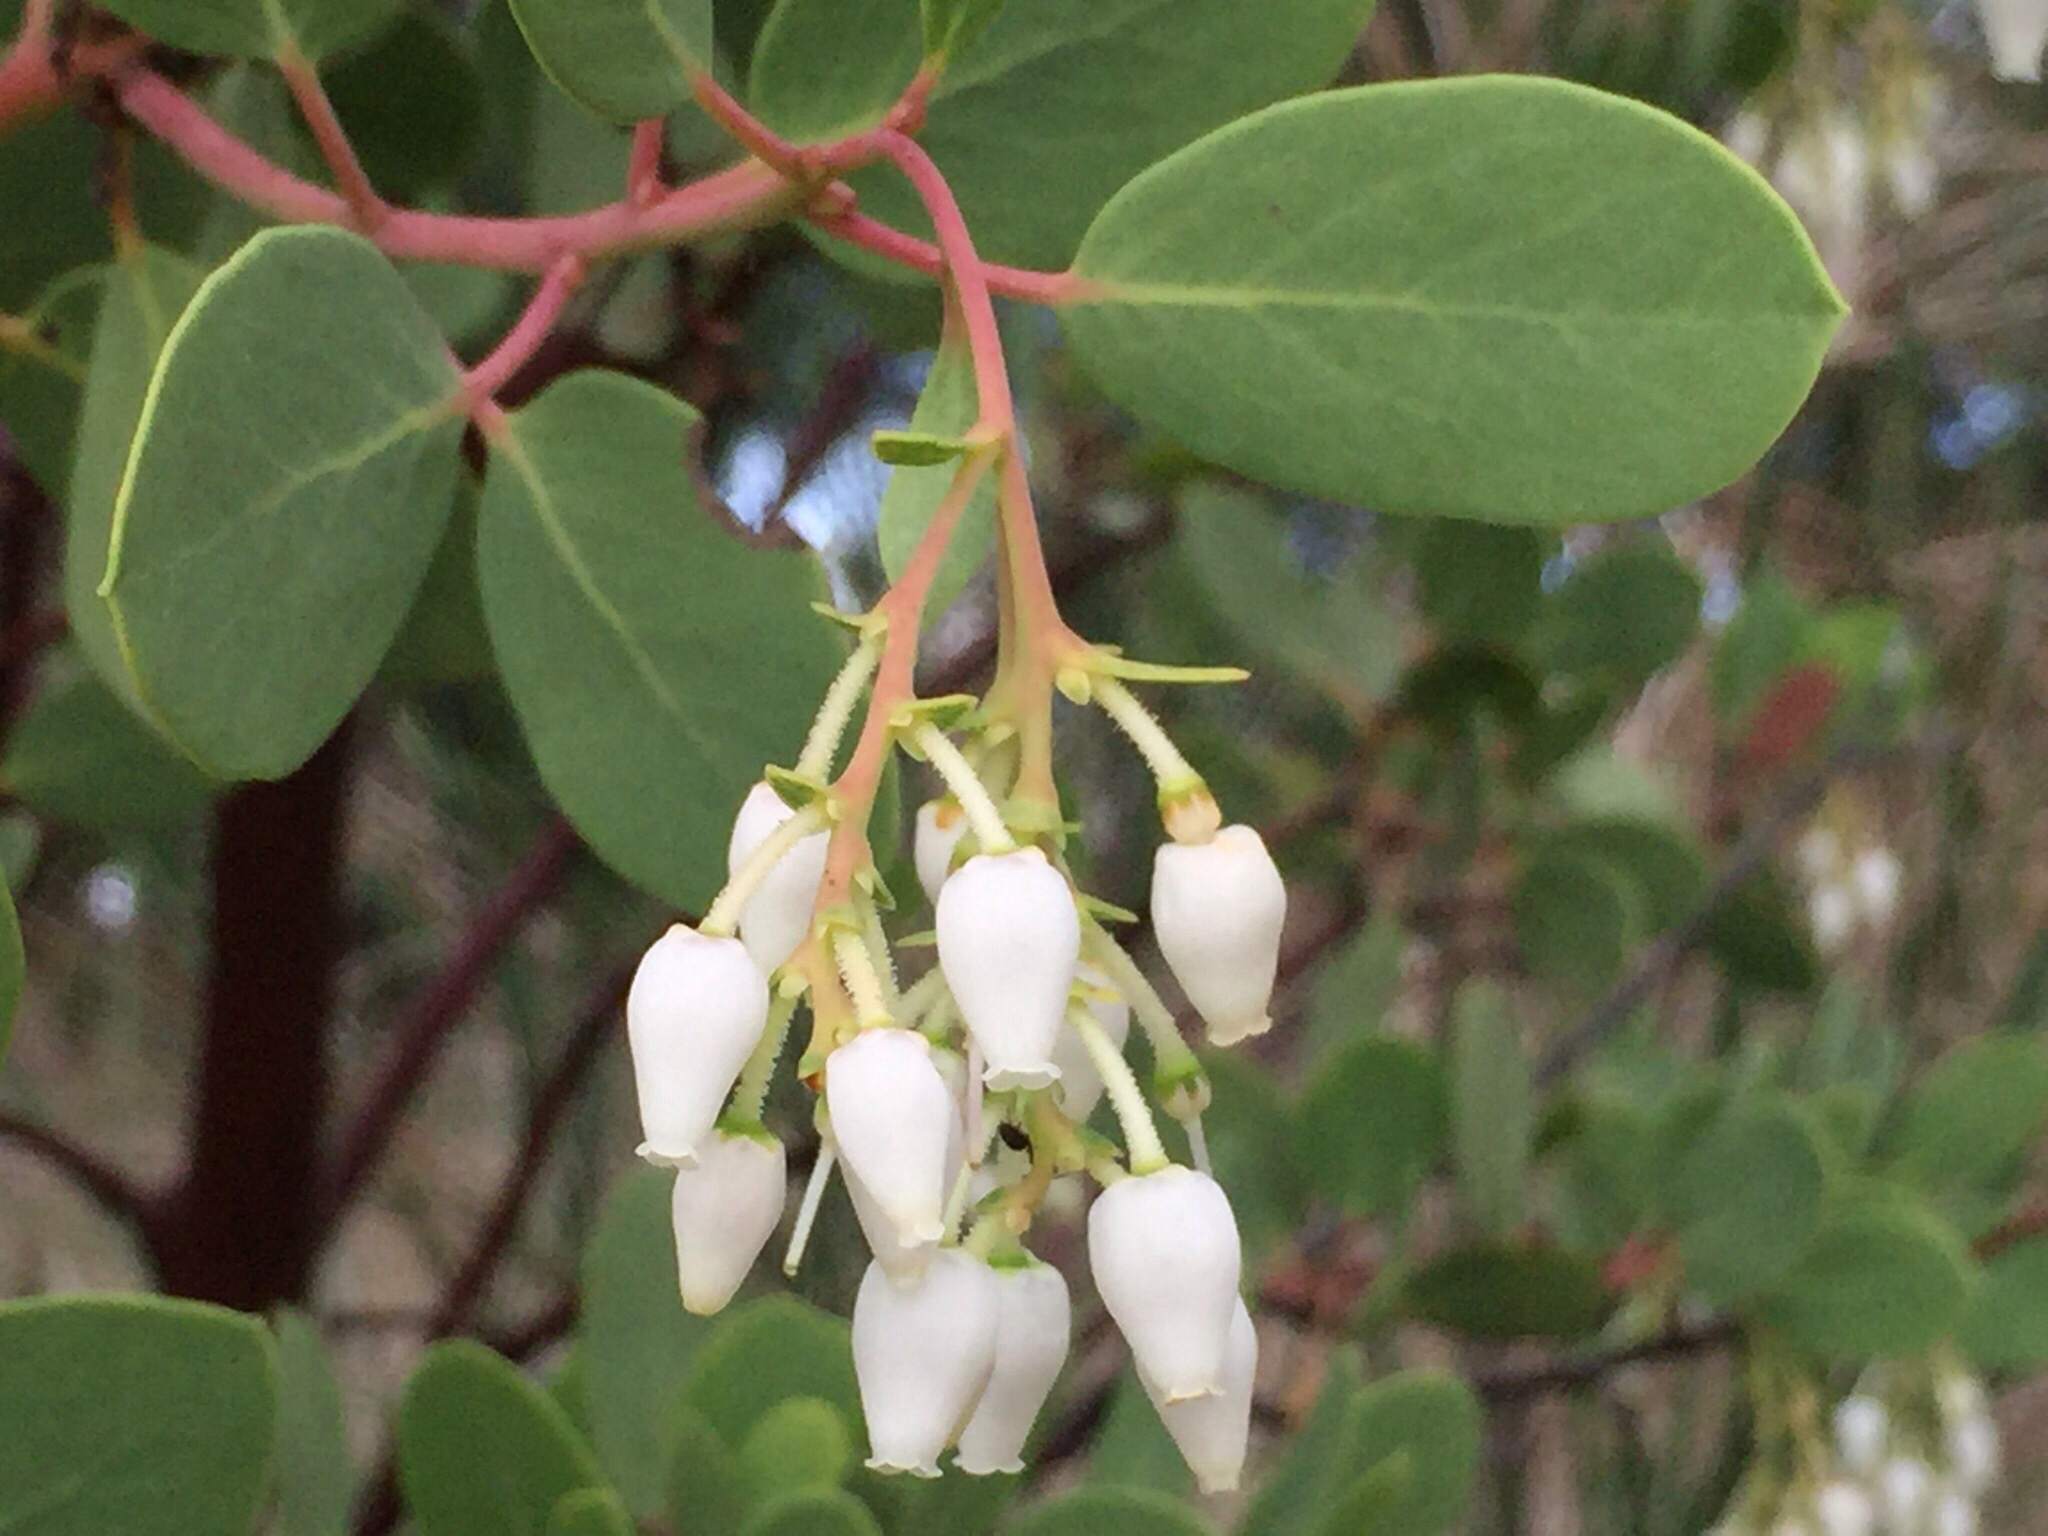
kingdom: Plantae
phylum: Tracheophyta
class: Magnoliopsida
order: Ericales
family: Ericaceae
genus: Arctostaphylos
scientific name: Arctostaphylos glauca
